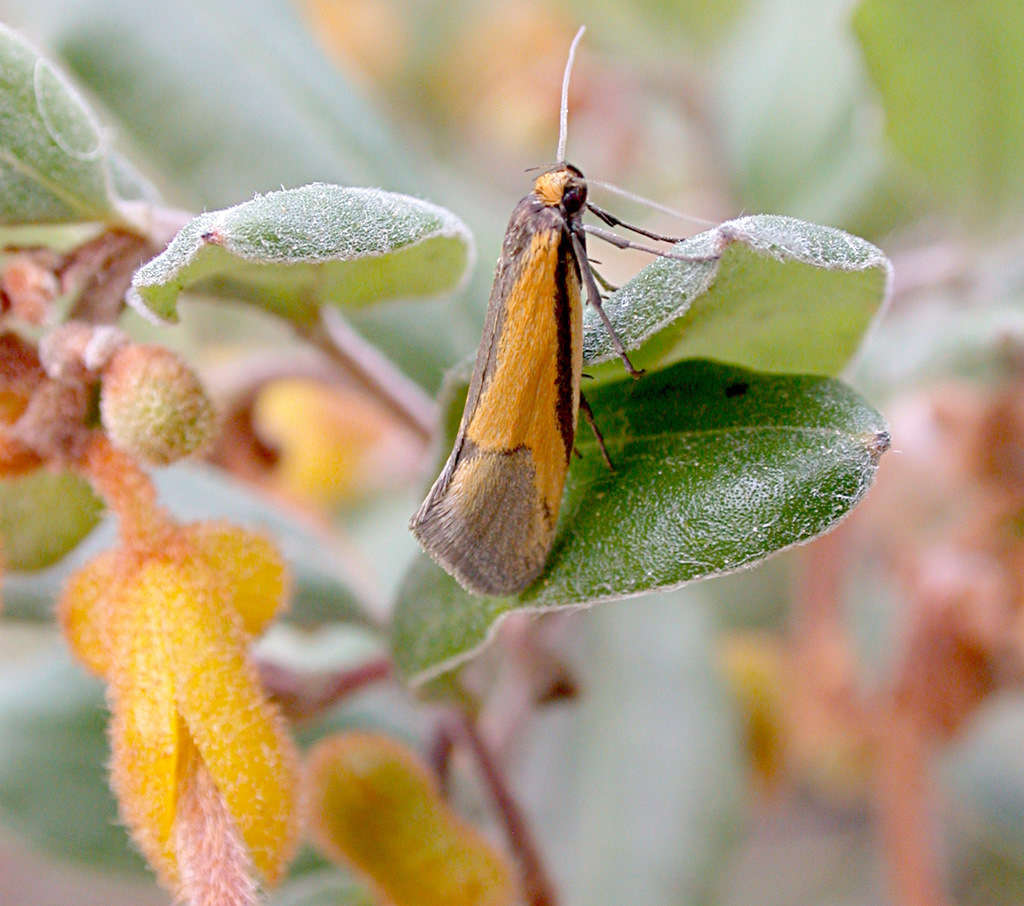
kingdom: Animalia
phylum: Arthropoda
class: Insecta
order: Lepidoptera
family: Oecophoridae
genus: Philobota
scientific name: Philobota arabella
